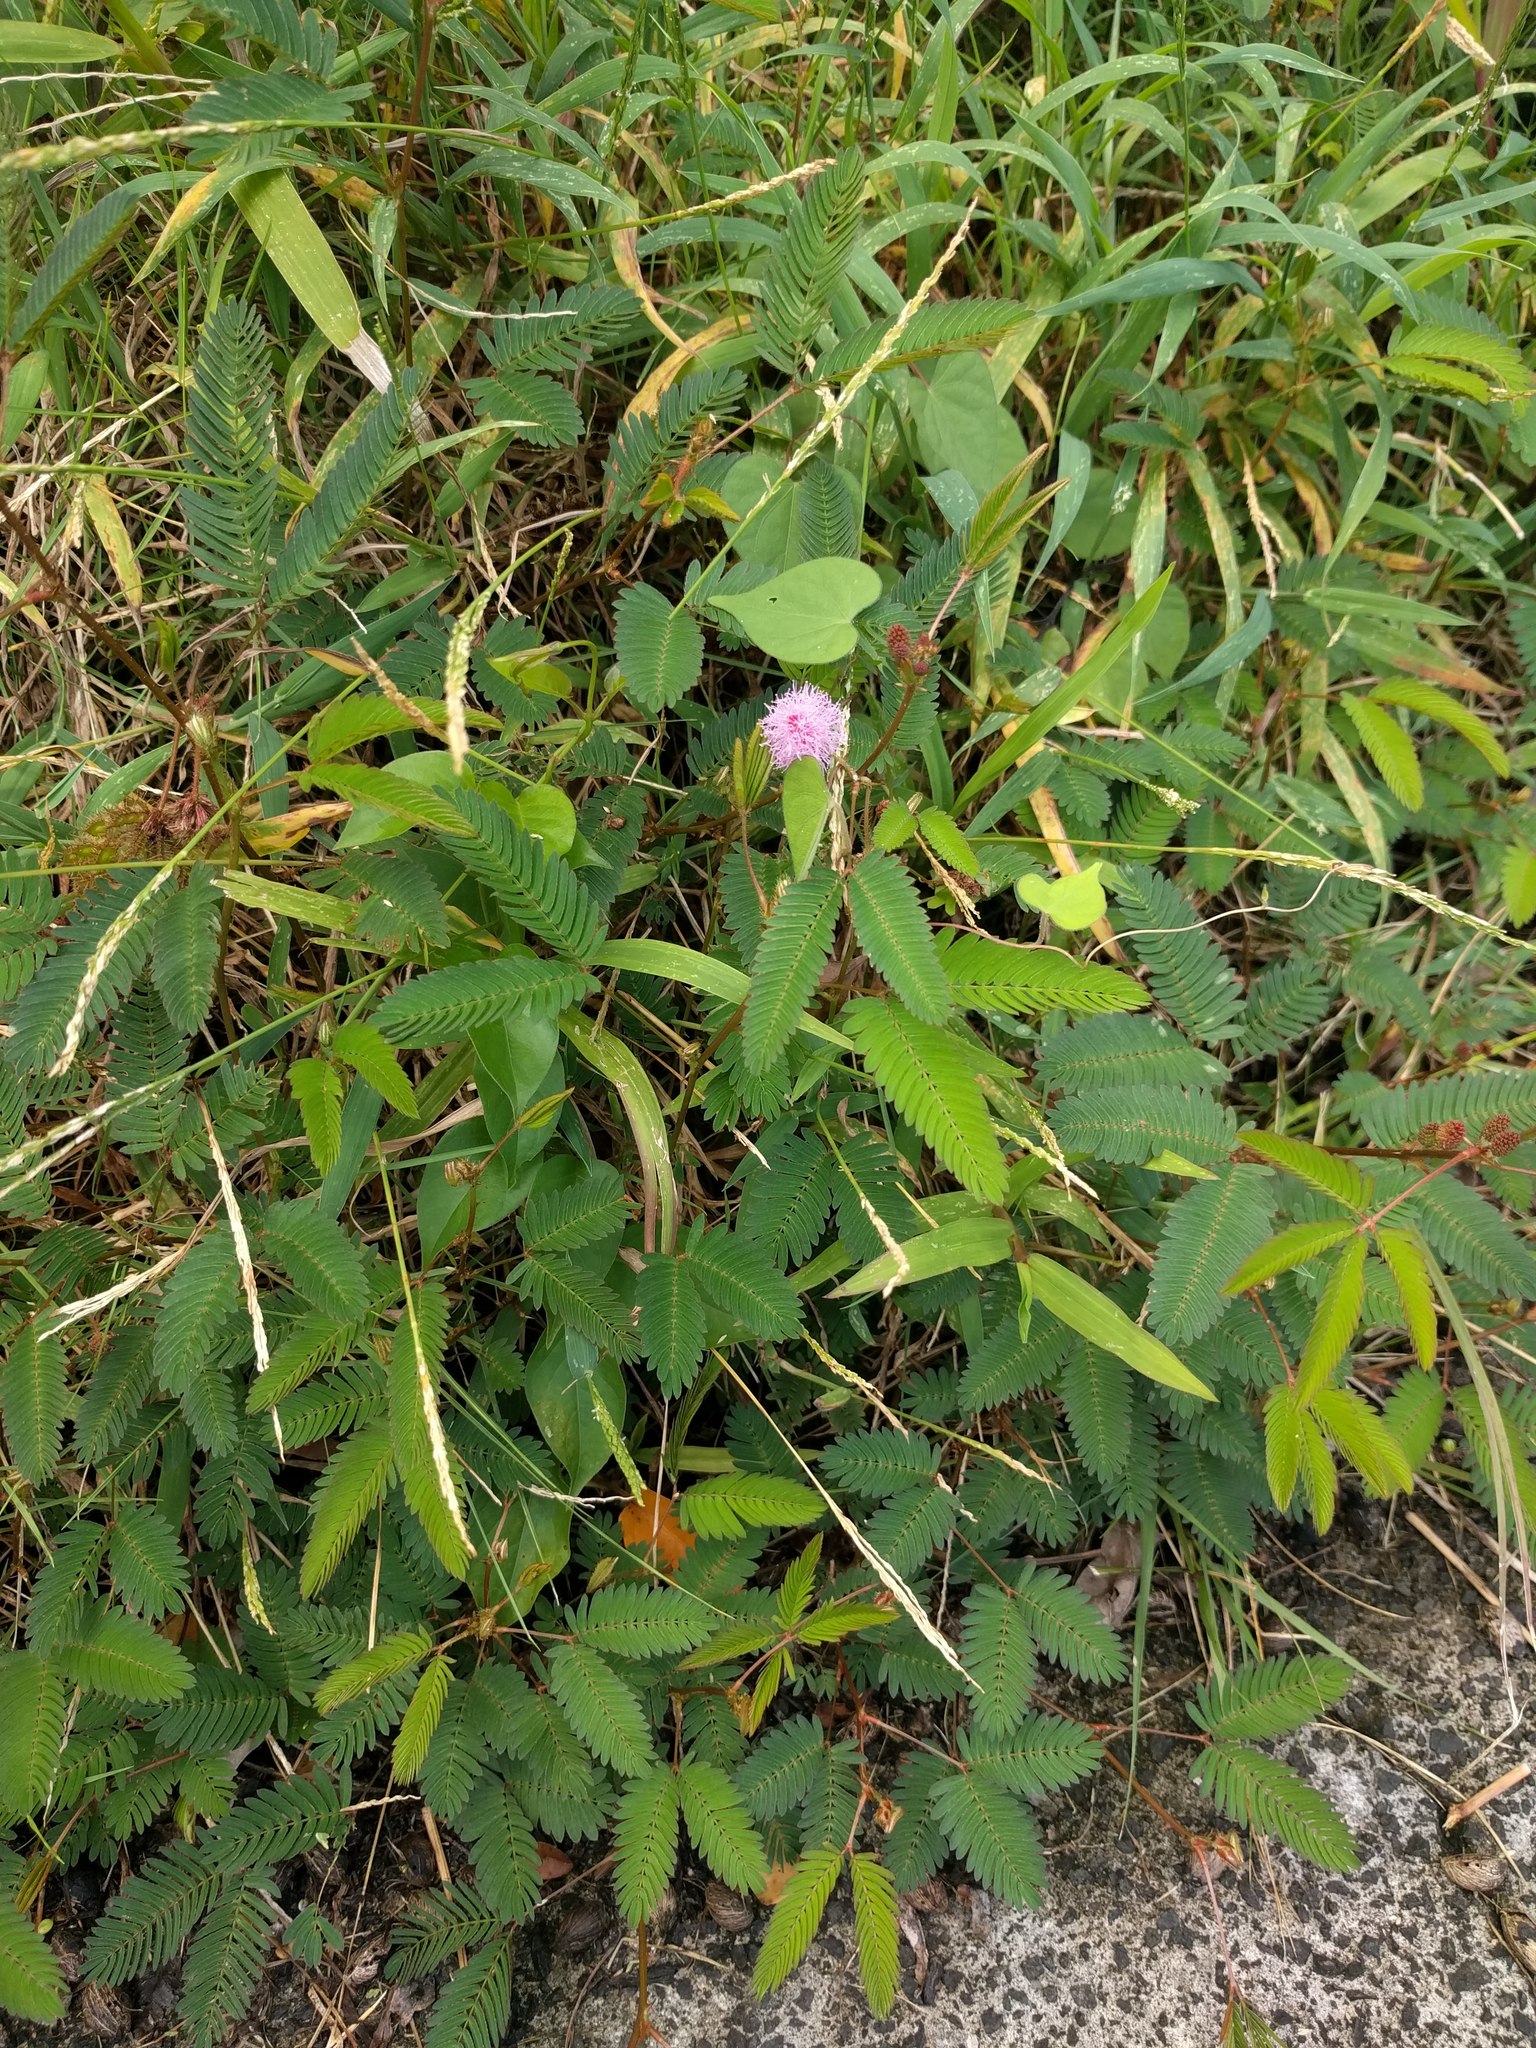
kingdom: Plantae
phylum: Tracheophyta
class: Magnoliopsida
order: Fabales
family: Fabaceae
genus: Mimosa
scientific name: Mimosa pudica
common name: Sensitive plant
